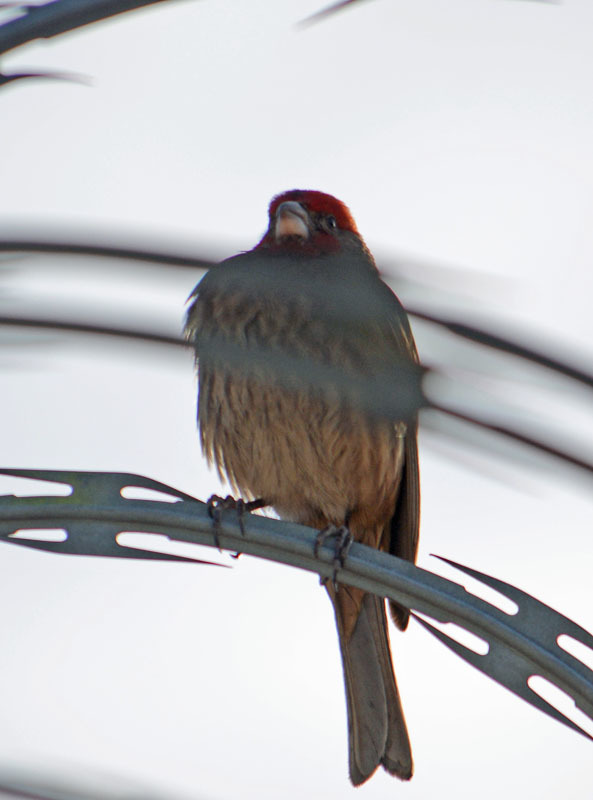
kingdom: Animalia
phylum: Chordata
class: Aves
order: Passeriformes
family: Fringillidae
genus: Haemorhous
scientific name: Haemorhous mexicanus
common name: House finch
